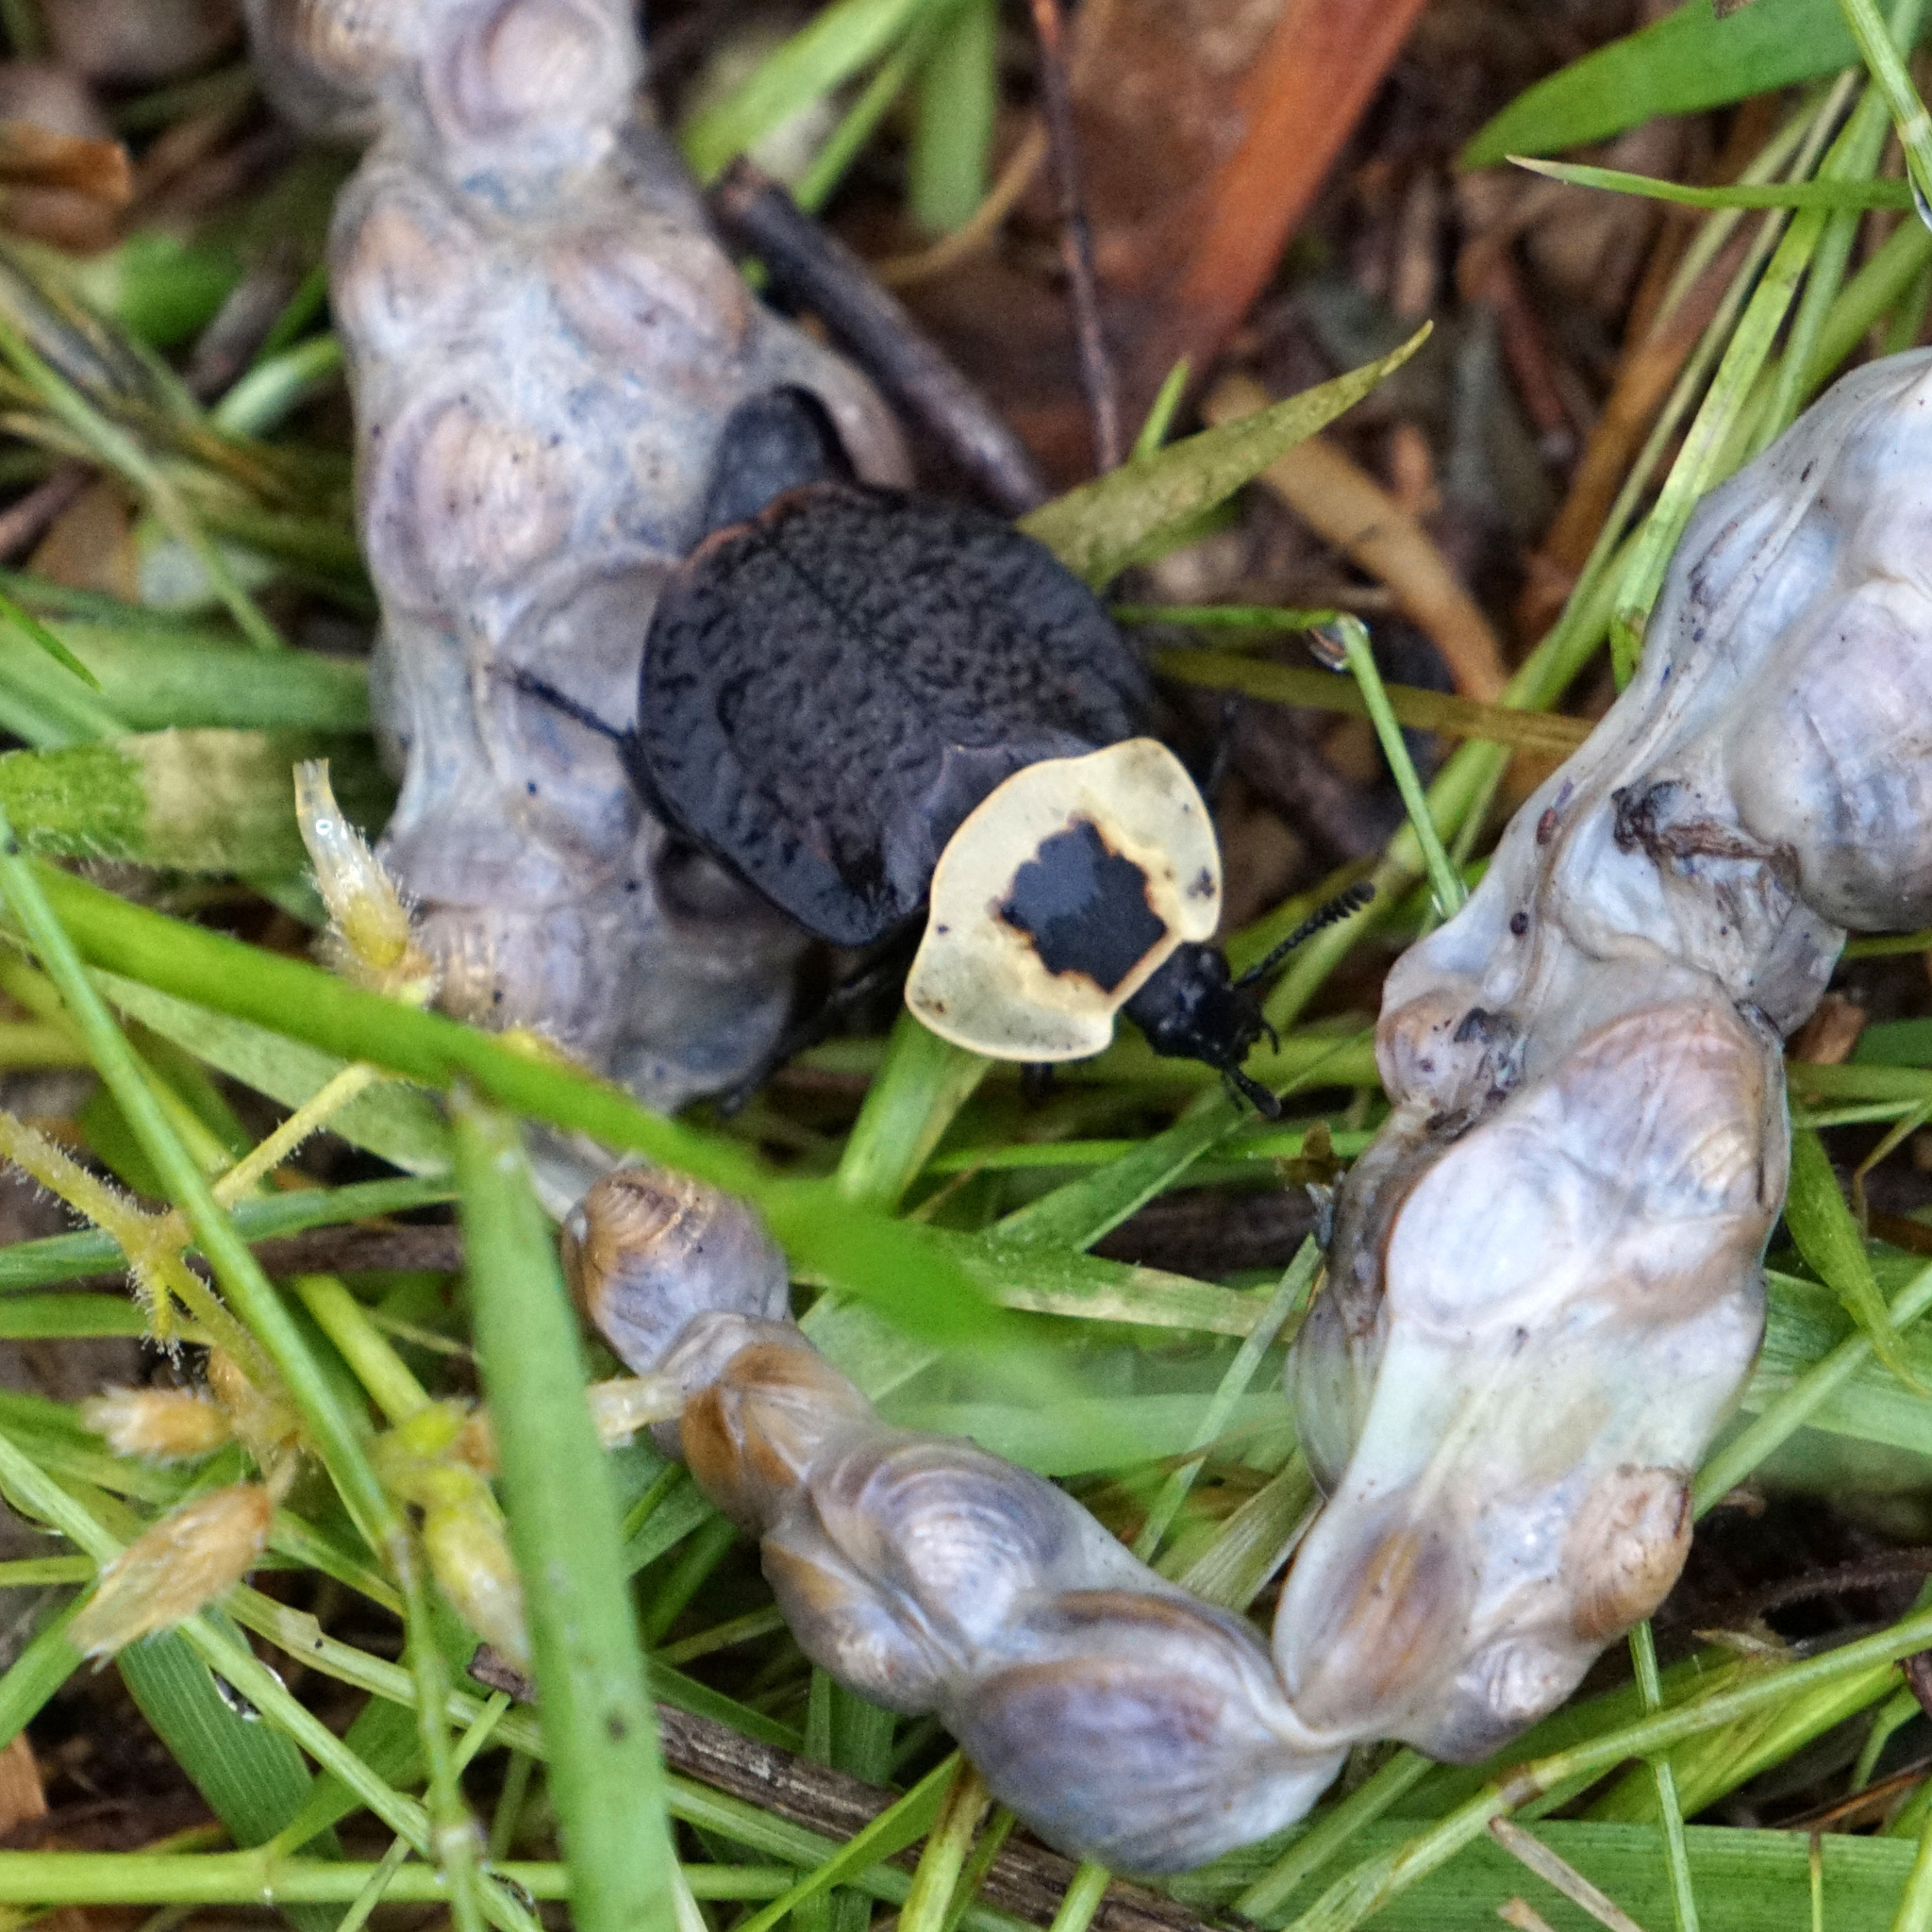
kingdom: Animalia
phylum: Arthropoda
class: Insecta
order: Coleoptera
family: Staphylinidae
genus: Necrophila
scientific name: Necrophila americana
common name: American carrion beetle
